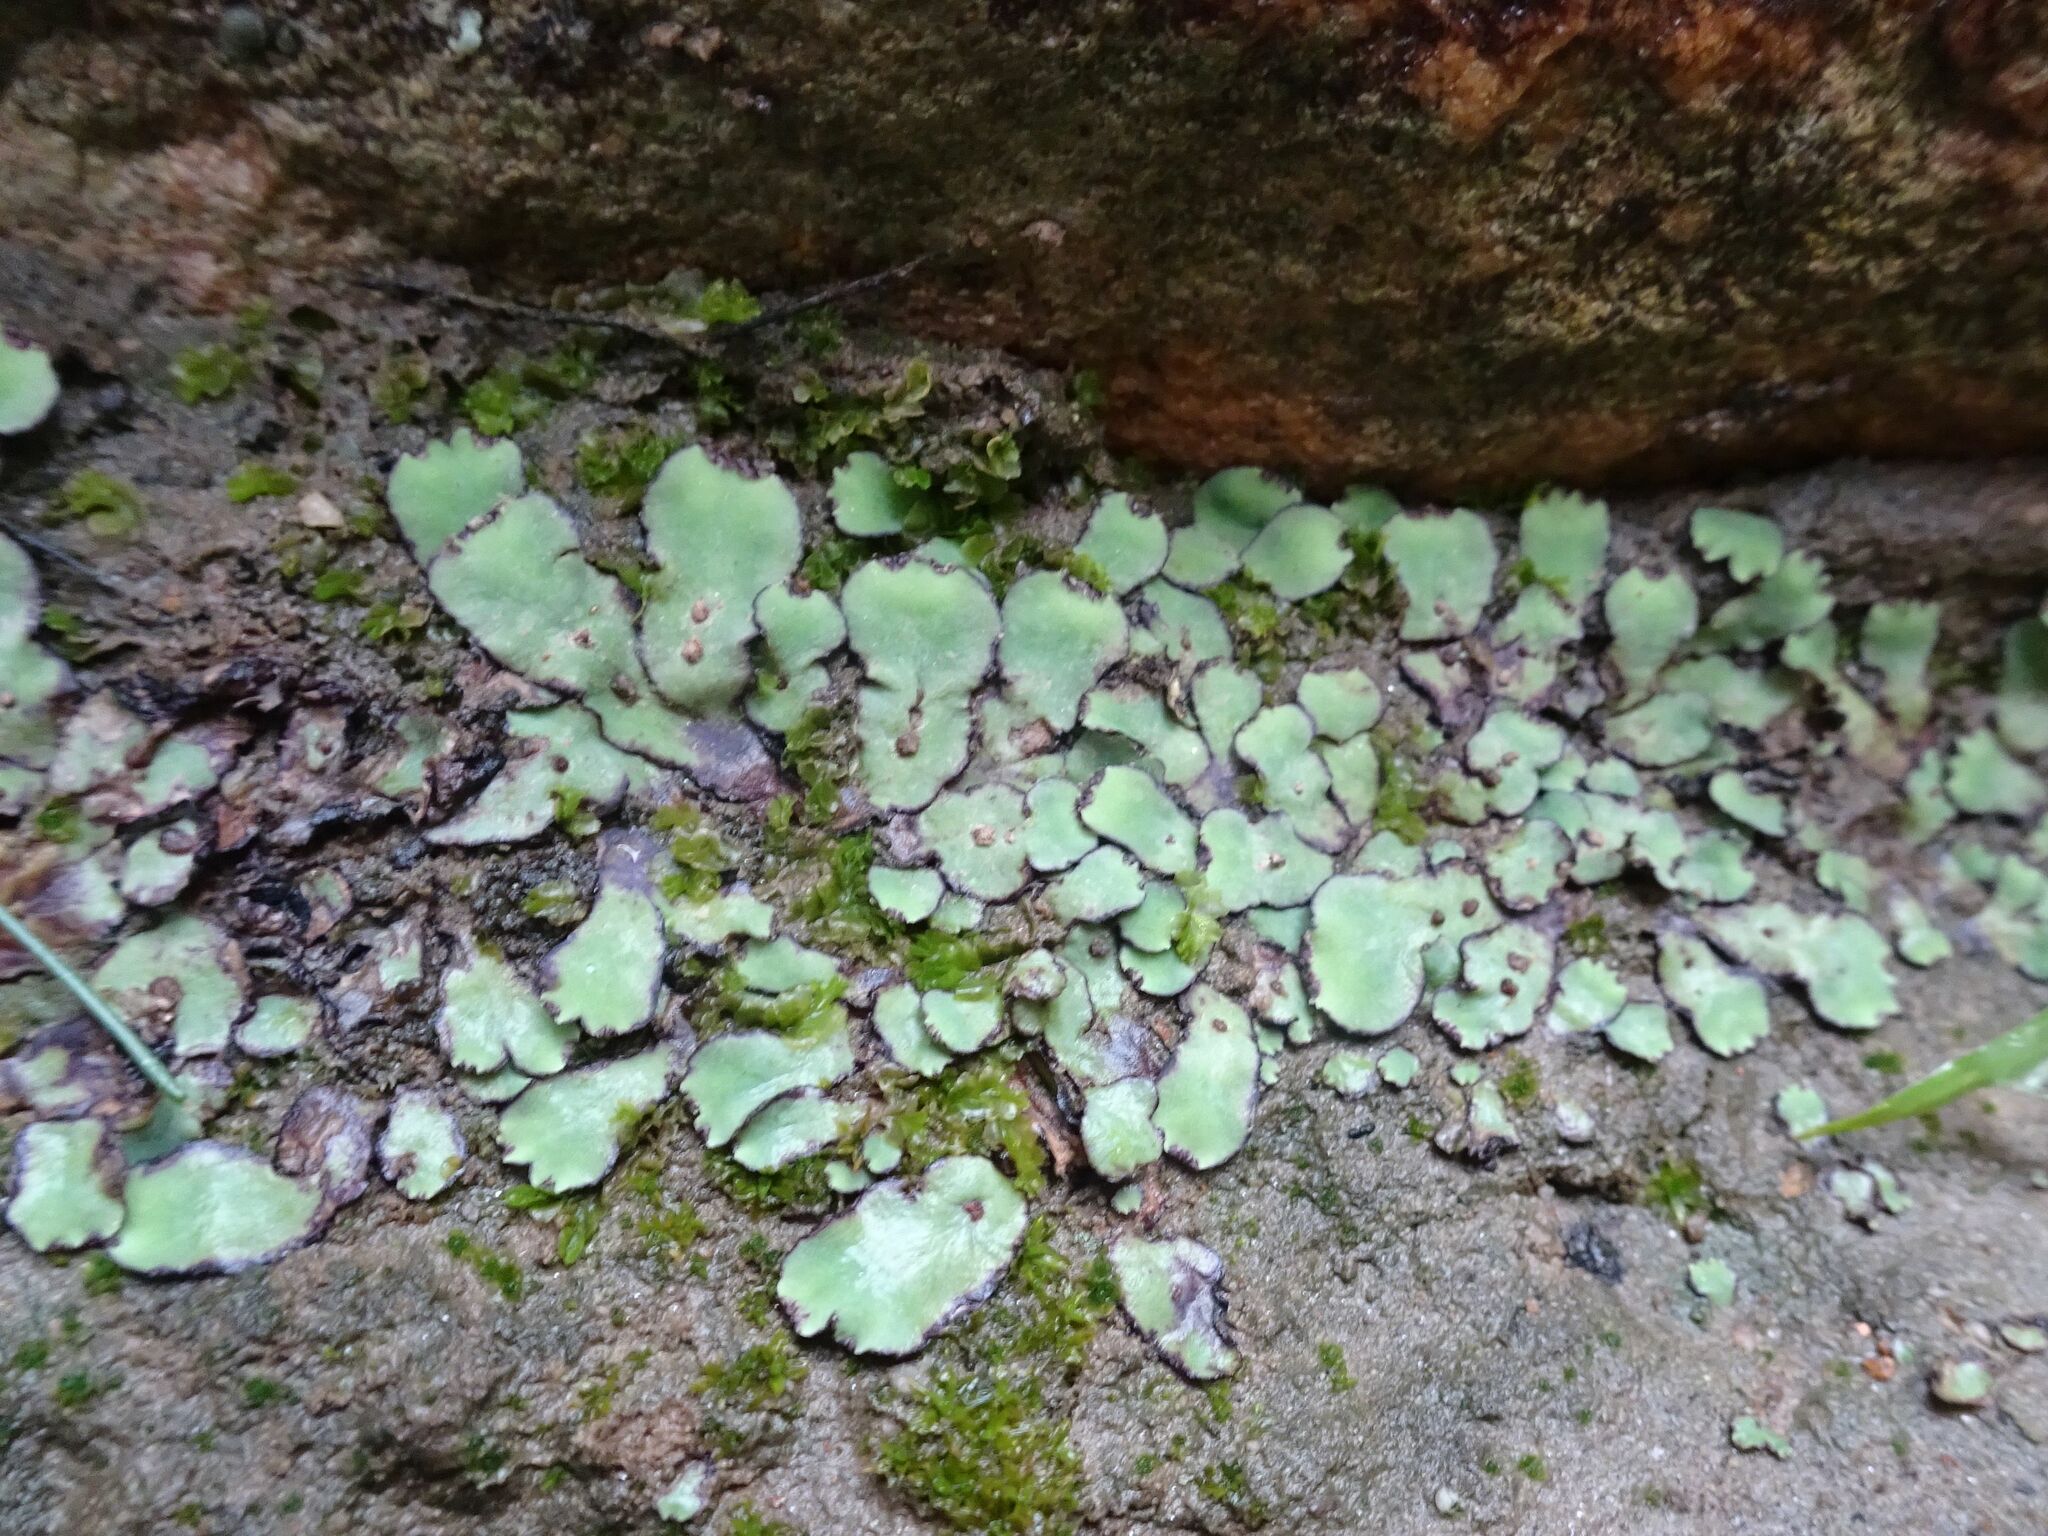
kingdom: Plantae
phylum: Marchantiophyta
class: Marchantiopsida
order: Marchantiales
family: Aytoniaceae
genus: Plagiochasma
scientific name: Plagiochasma rupestre
